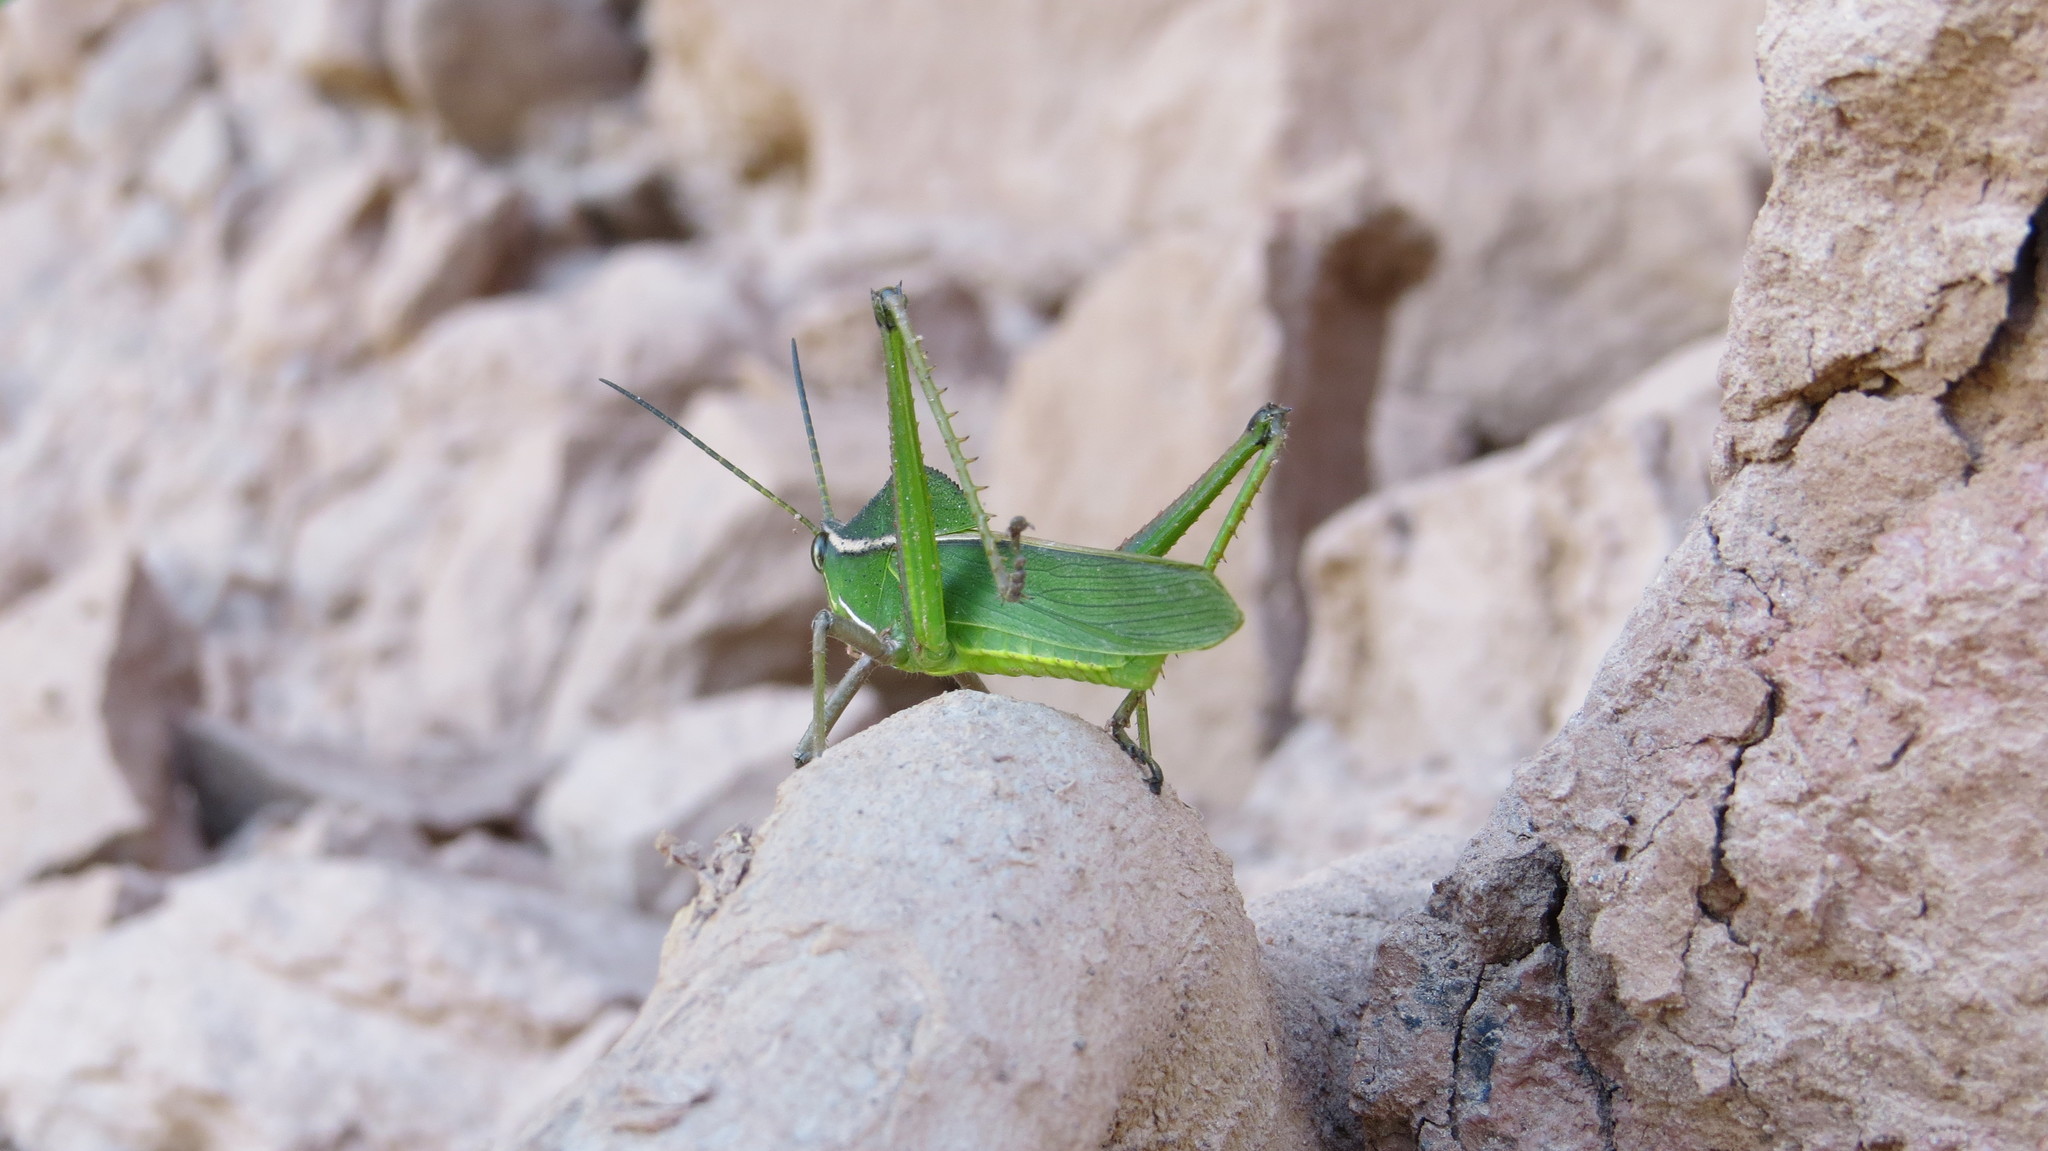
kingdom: Animalia
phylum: Arthropoda
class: Insecta
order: Orthoptera
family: Romaleidae
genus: Prionolopha
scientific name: Prionolopha serrata
